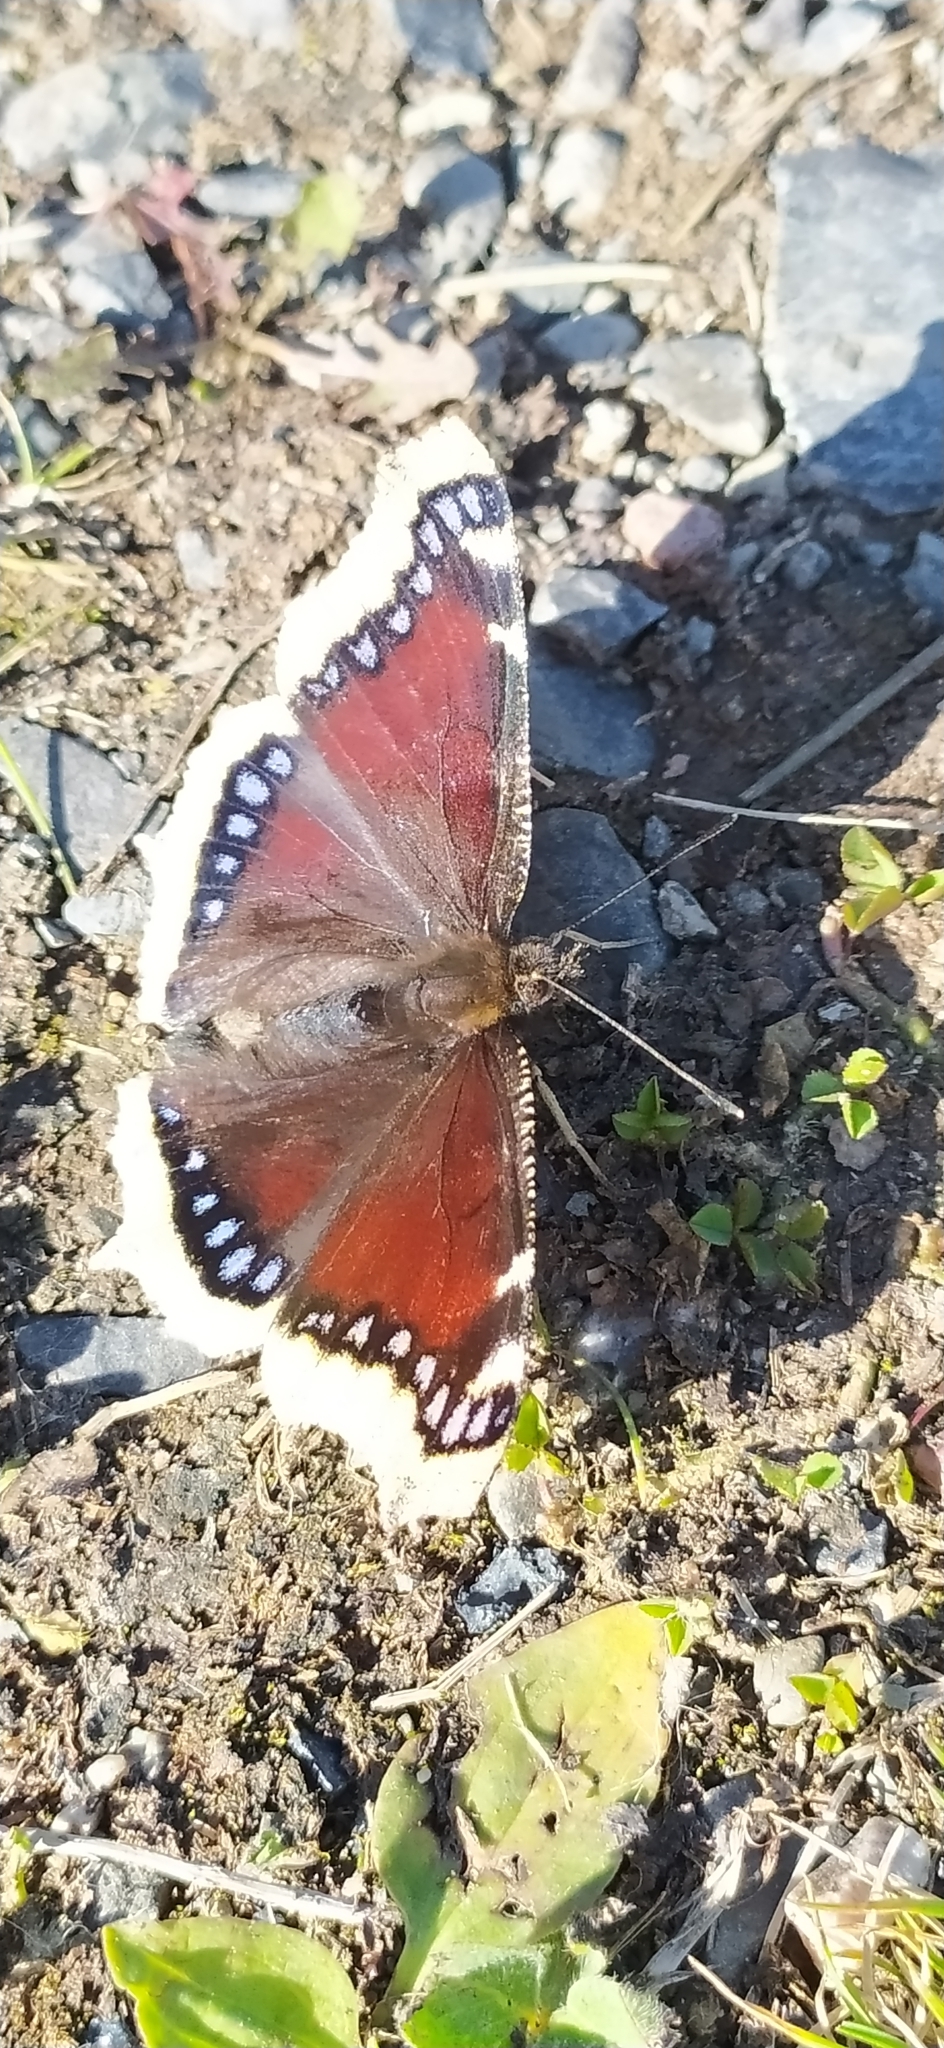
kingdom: Animalia
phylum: Arthropoda
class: Insecta
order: Lepidoptera
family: Nymphalidae
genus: Nymphalis
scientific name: Nymphalis antiopa
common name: Camberwell beauty
